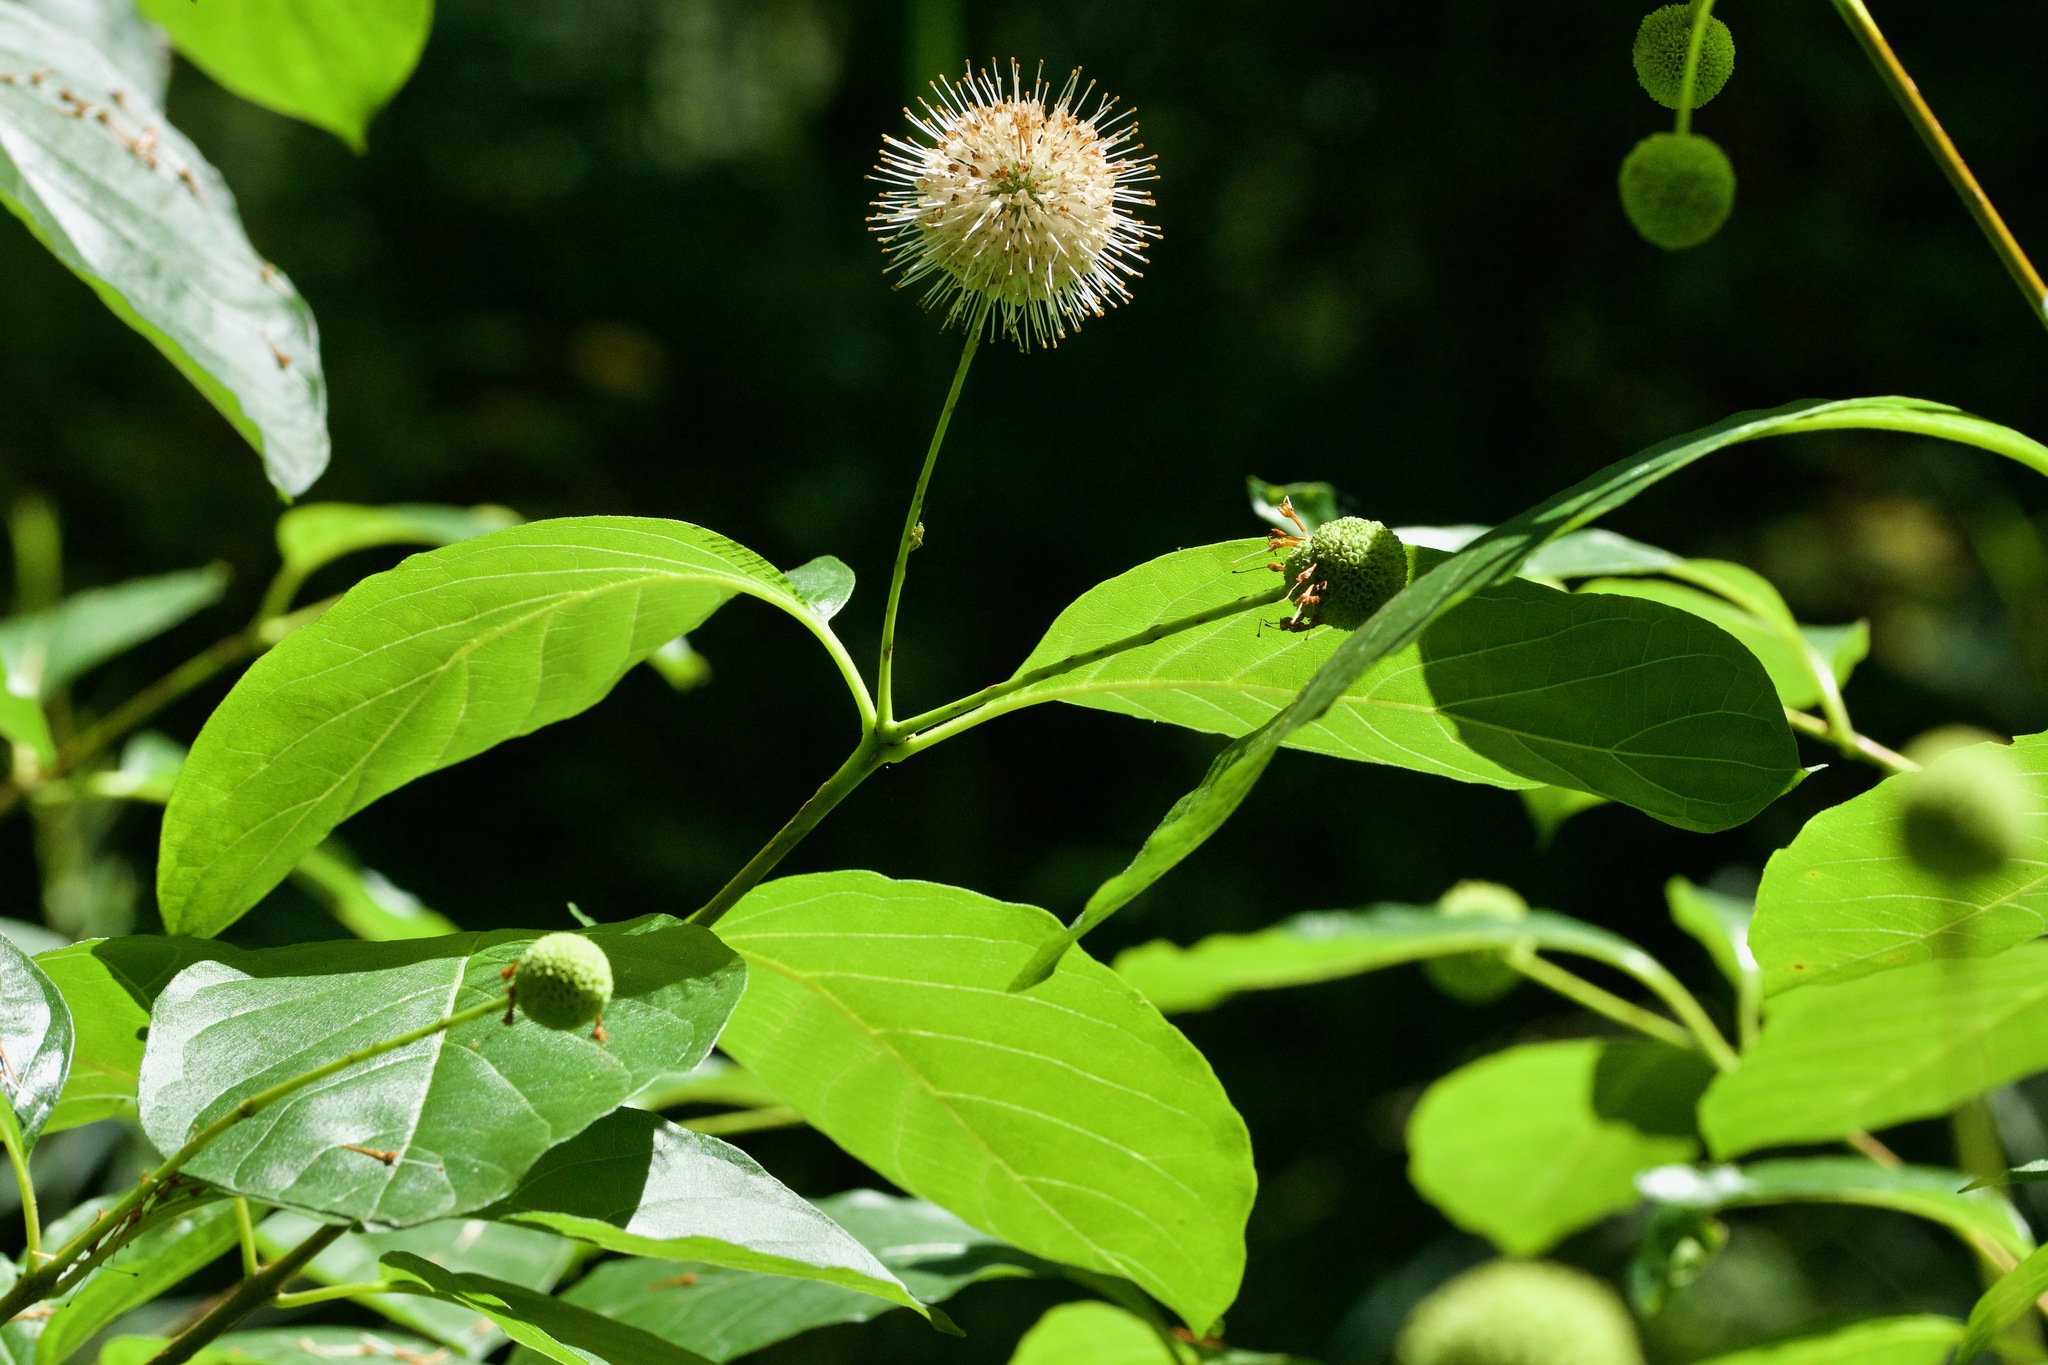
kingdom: Plantae
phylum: Tracheophyta
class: Magnoliopsida
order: Gentianales
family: Rubiaceae
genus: Cephalanthus
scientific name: Cephalanthus occidentalis
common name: Button-willow
